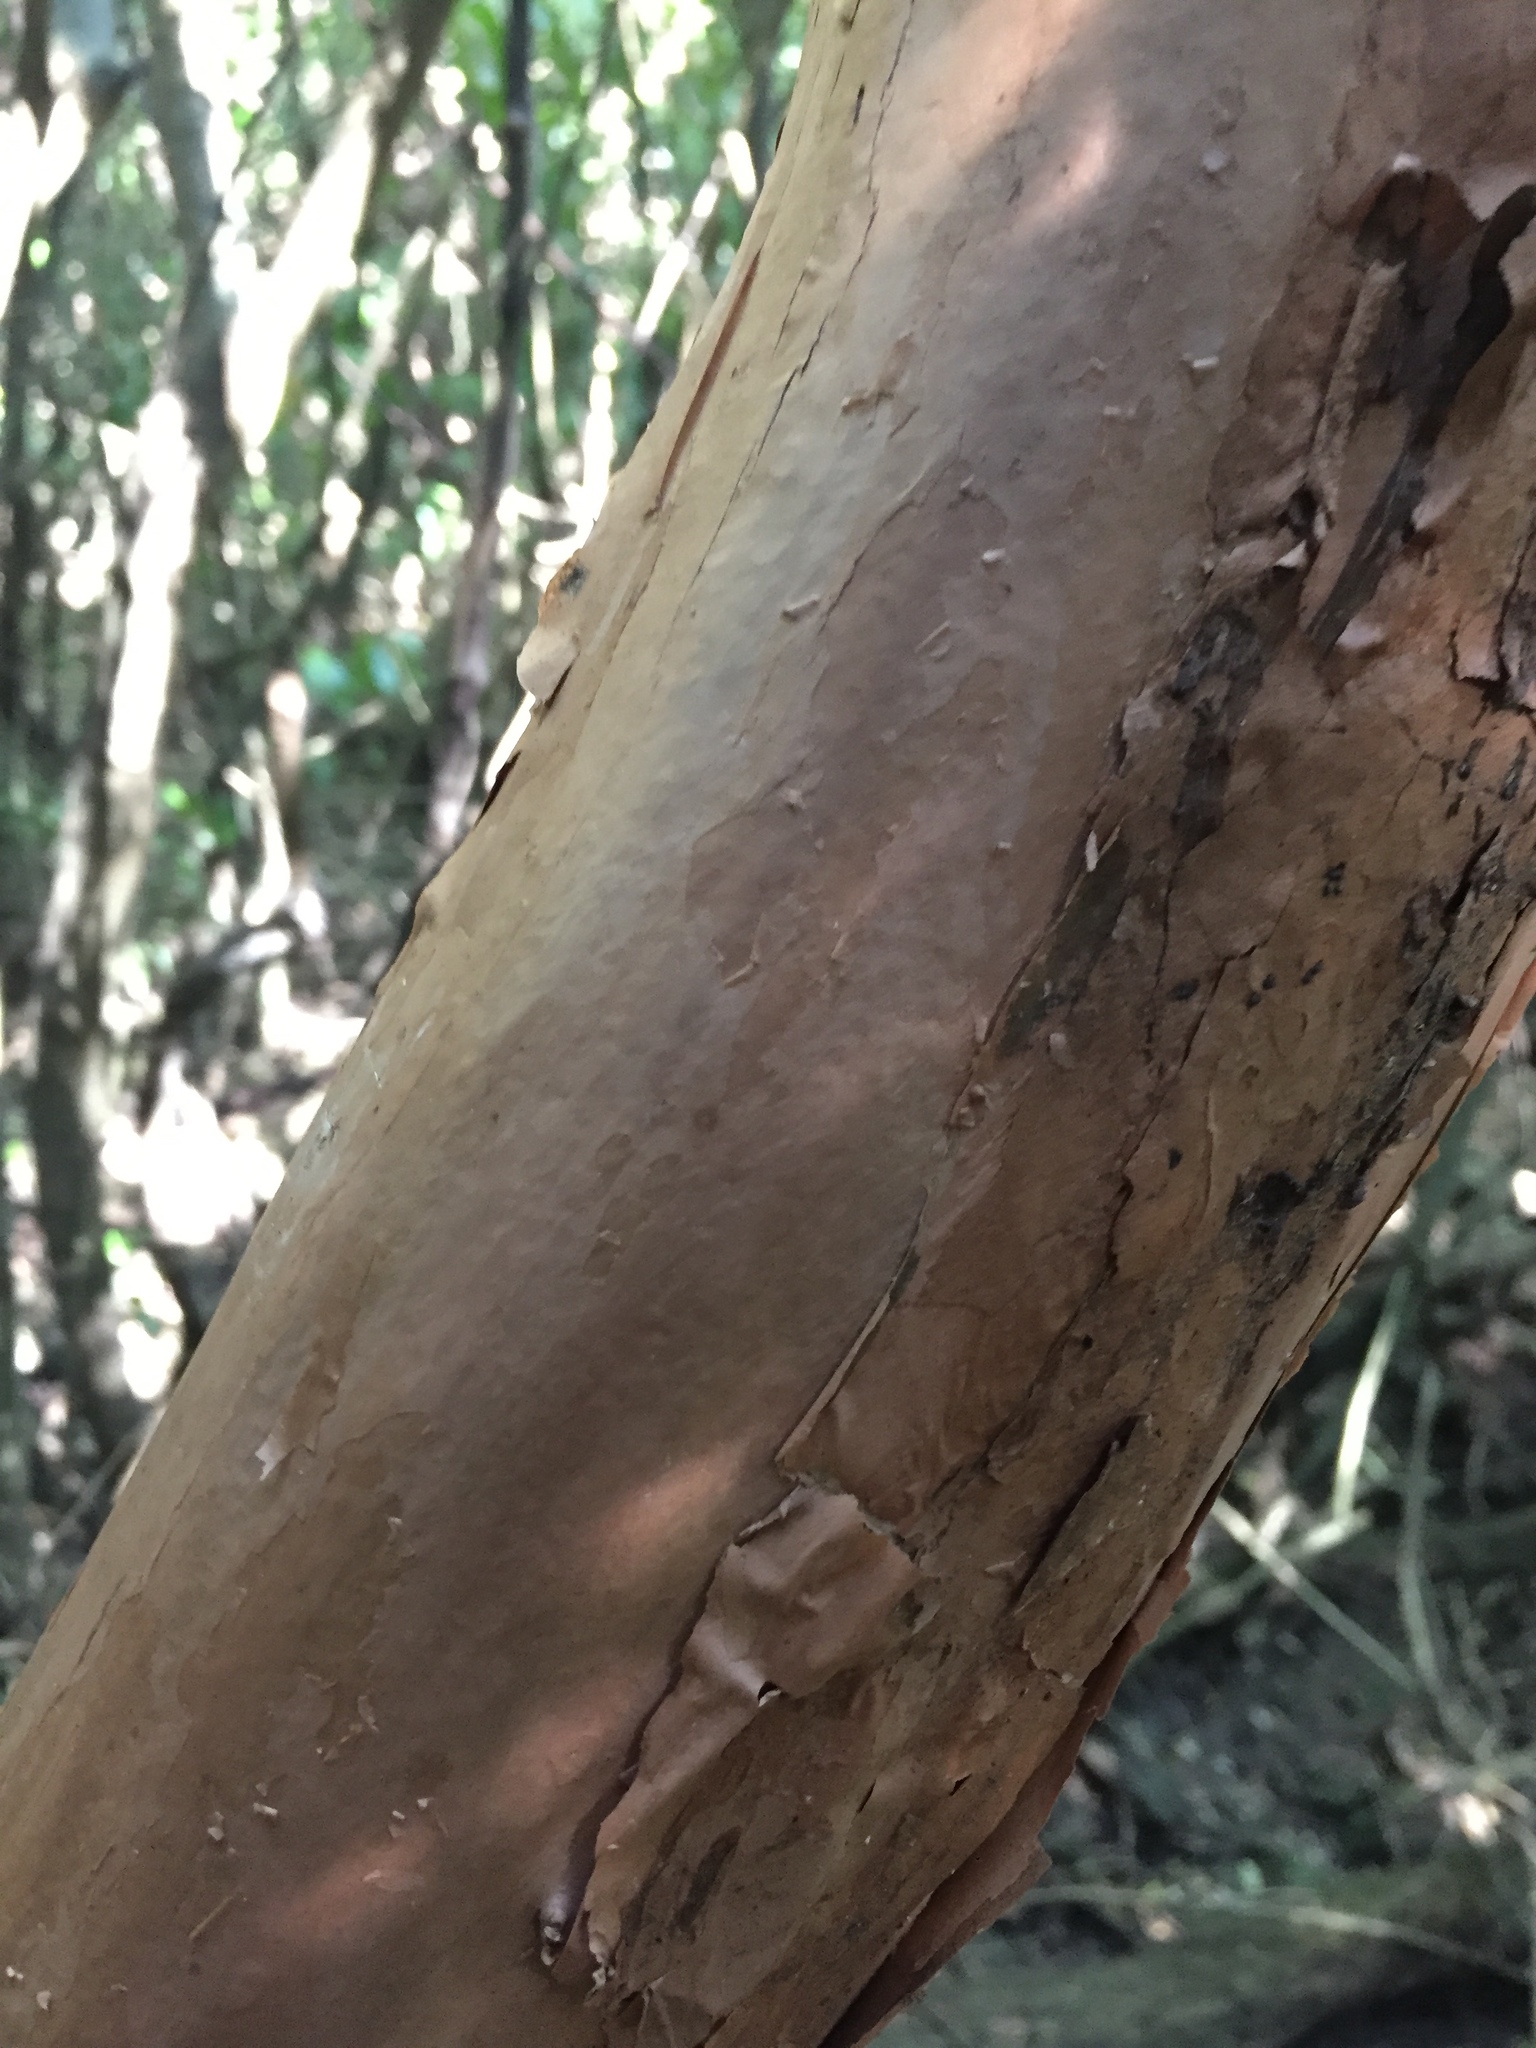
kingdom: Plantae
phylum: Tracheophyta
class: Magnoliopsida
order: Myrtales
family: Onagraceae
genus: Fuchsia
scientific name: Fuchsia excorticata
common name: Tree fuchsia
